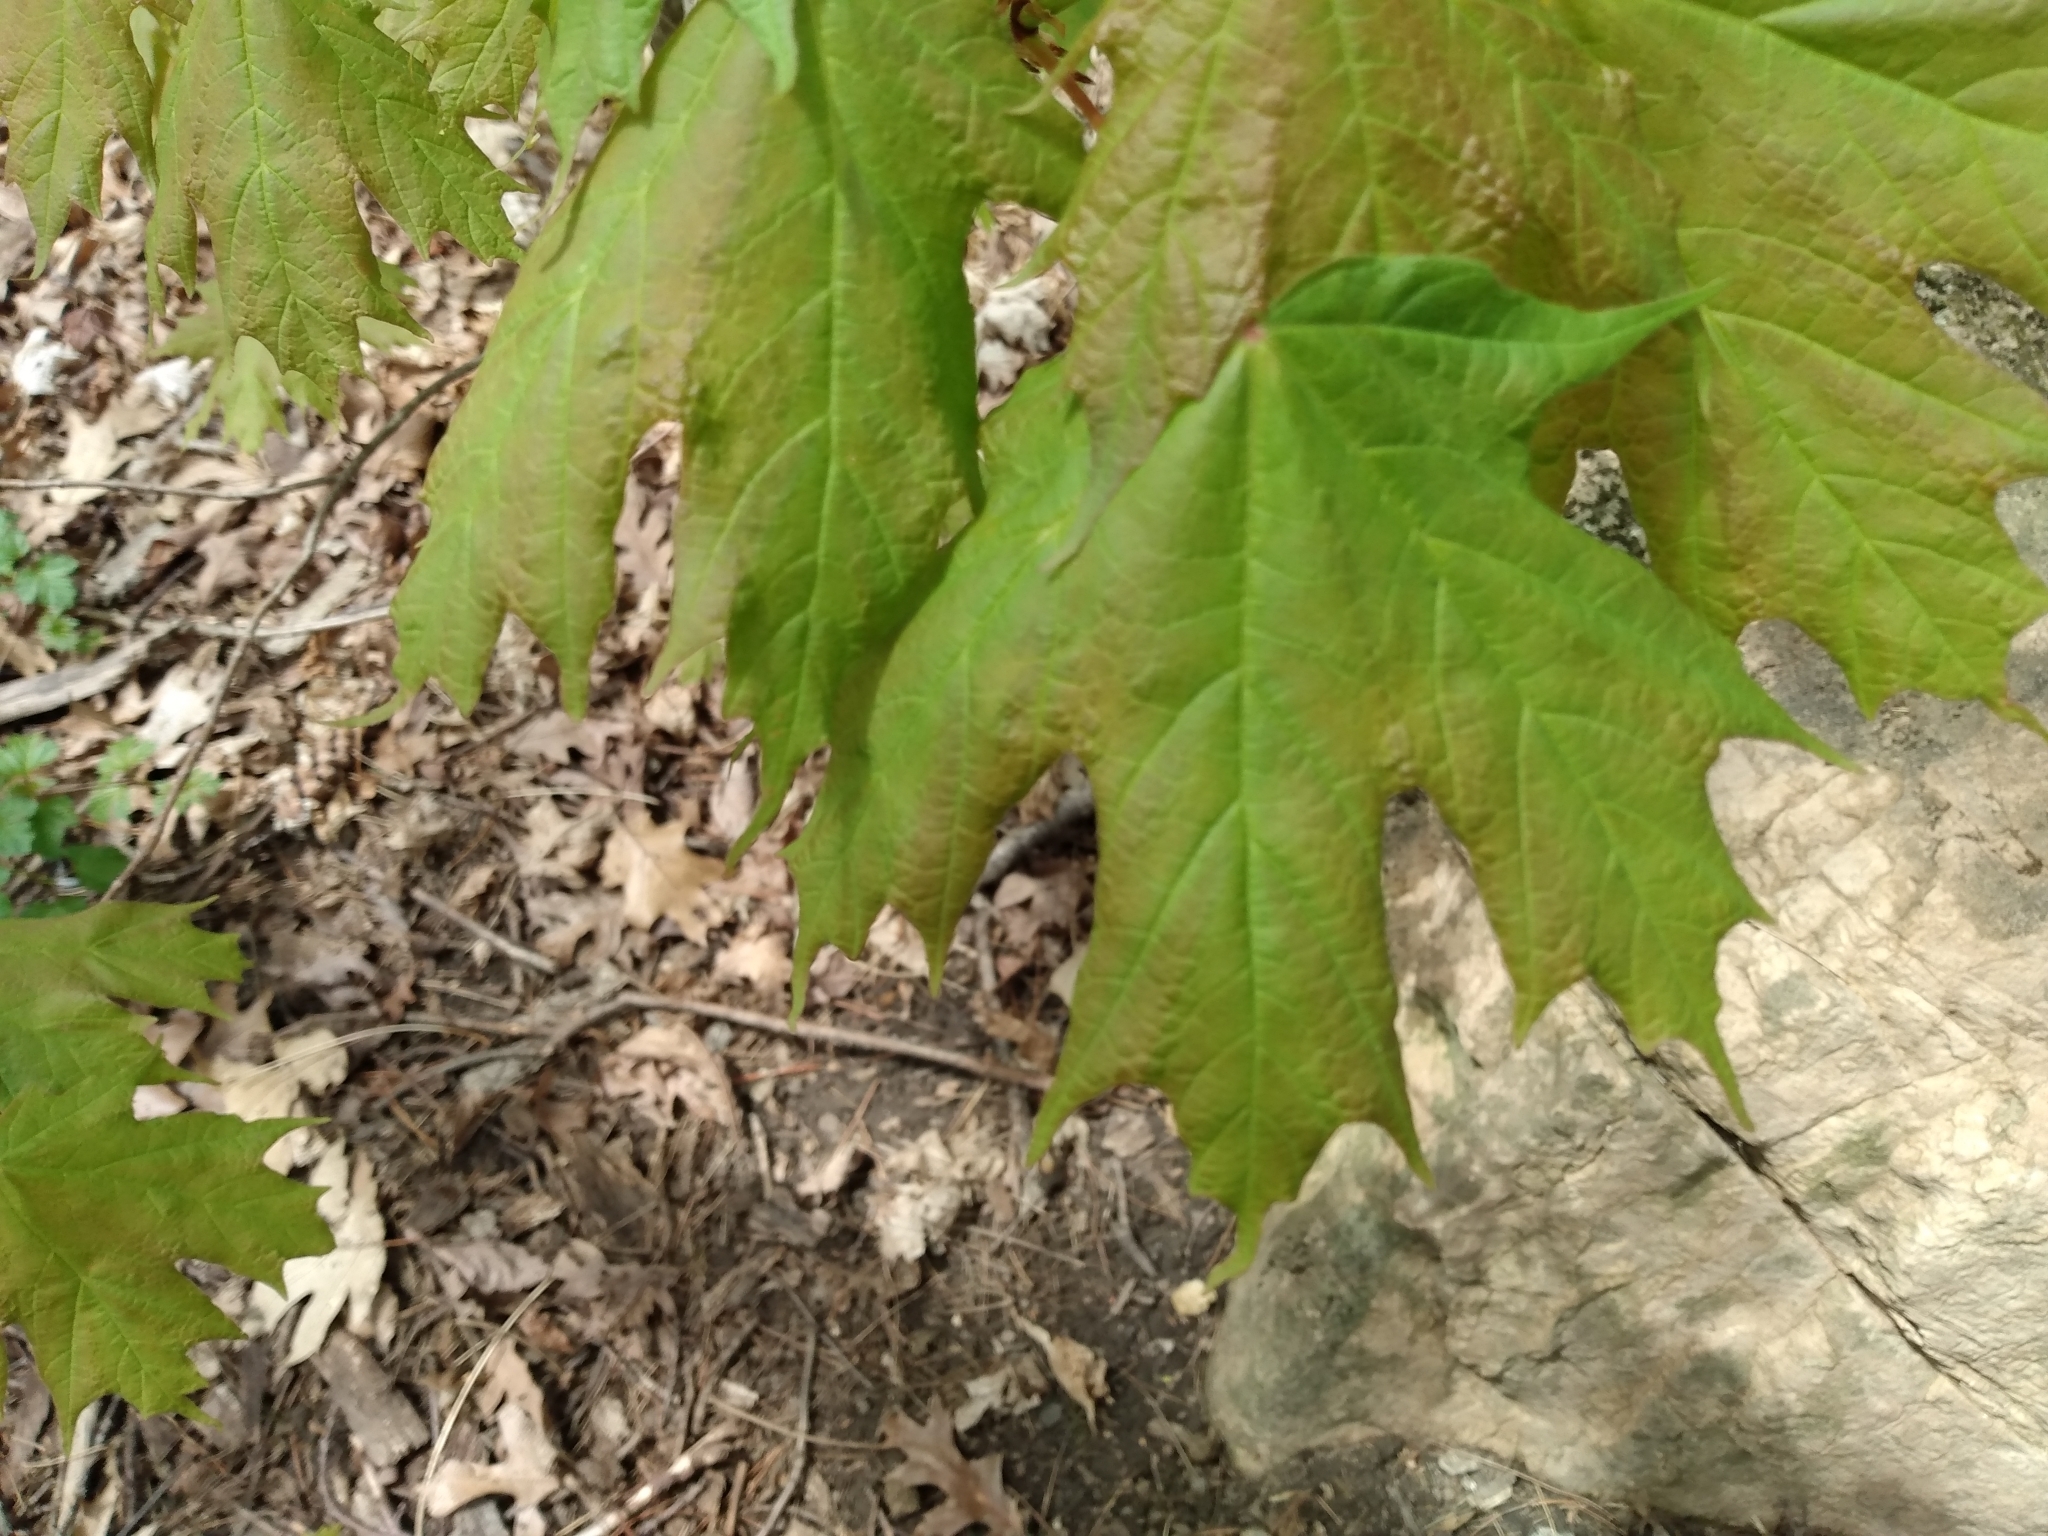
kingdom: Plantae
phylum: Tracheophyta
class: Magnoliopsida
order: Sapindales
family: Sapindaceae
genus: Acer
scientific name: Acer saccharum
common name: Sugar maple
